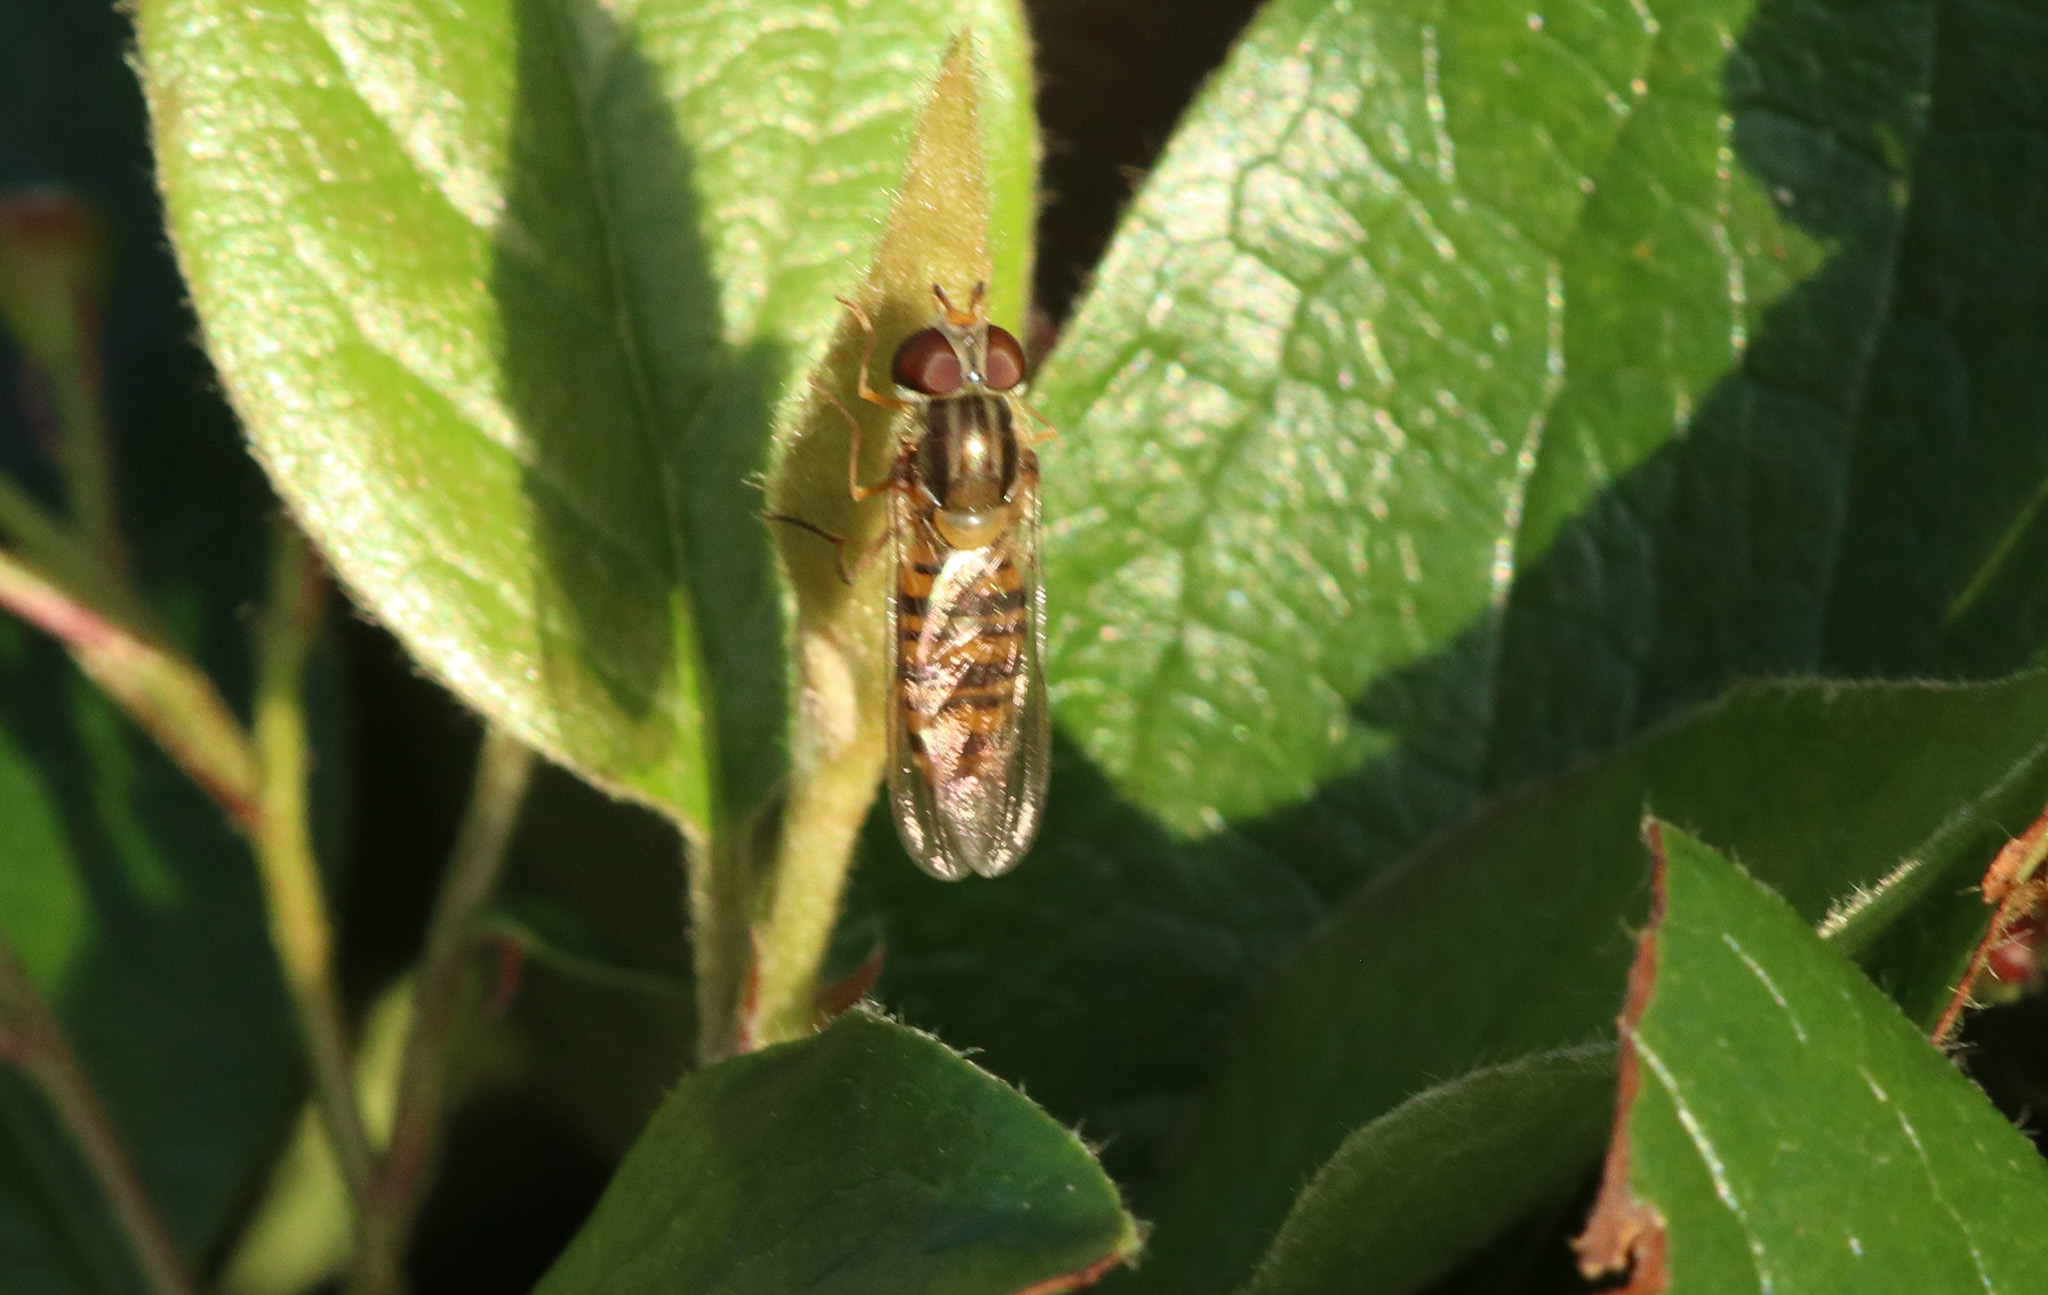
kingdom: Animalia
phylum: Arthropoda
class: Insecta
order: Diptera
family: Syrphidae
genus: Episyrphus
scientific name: Episyrphus balteatus
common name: Marmalade hoverfly
